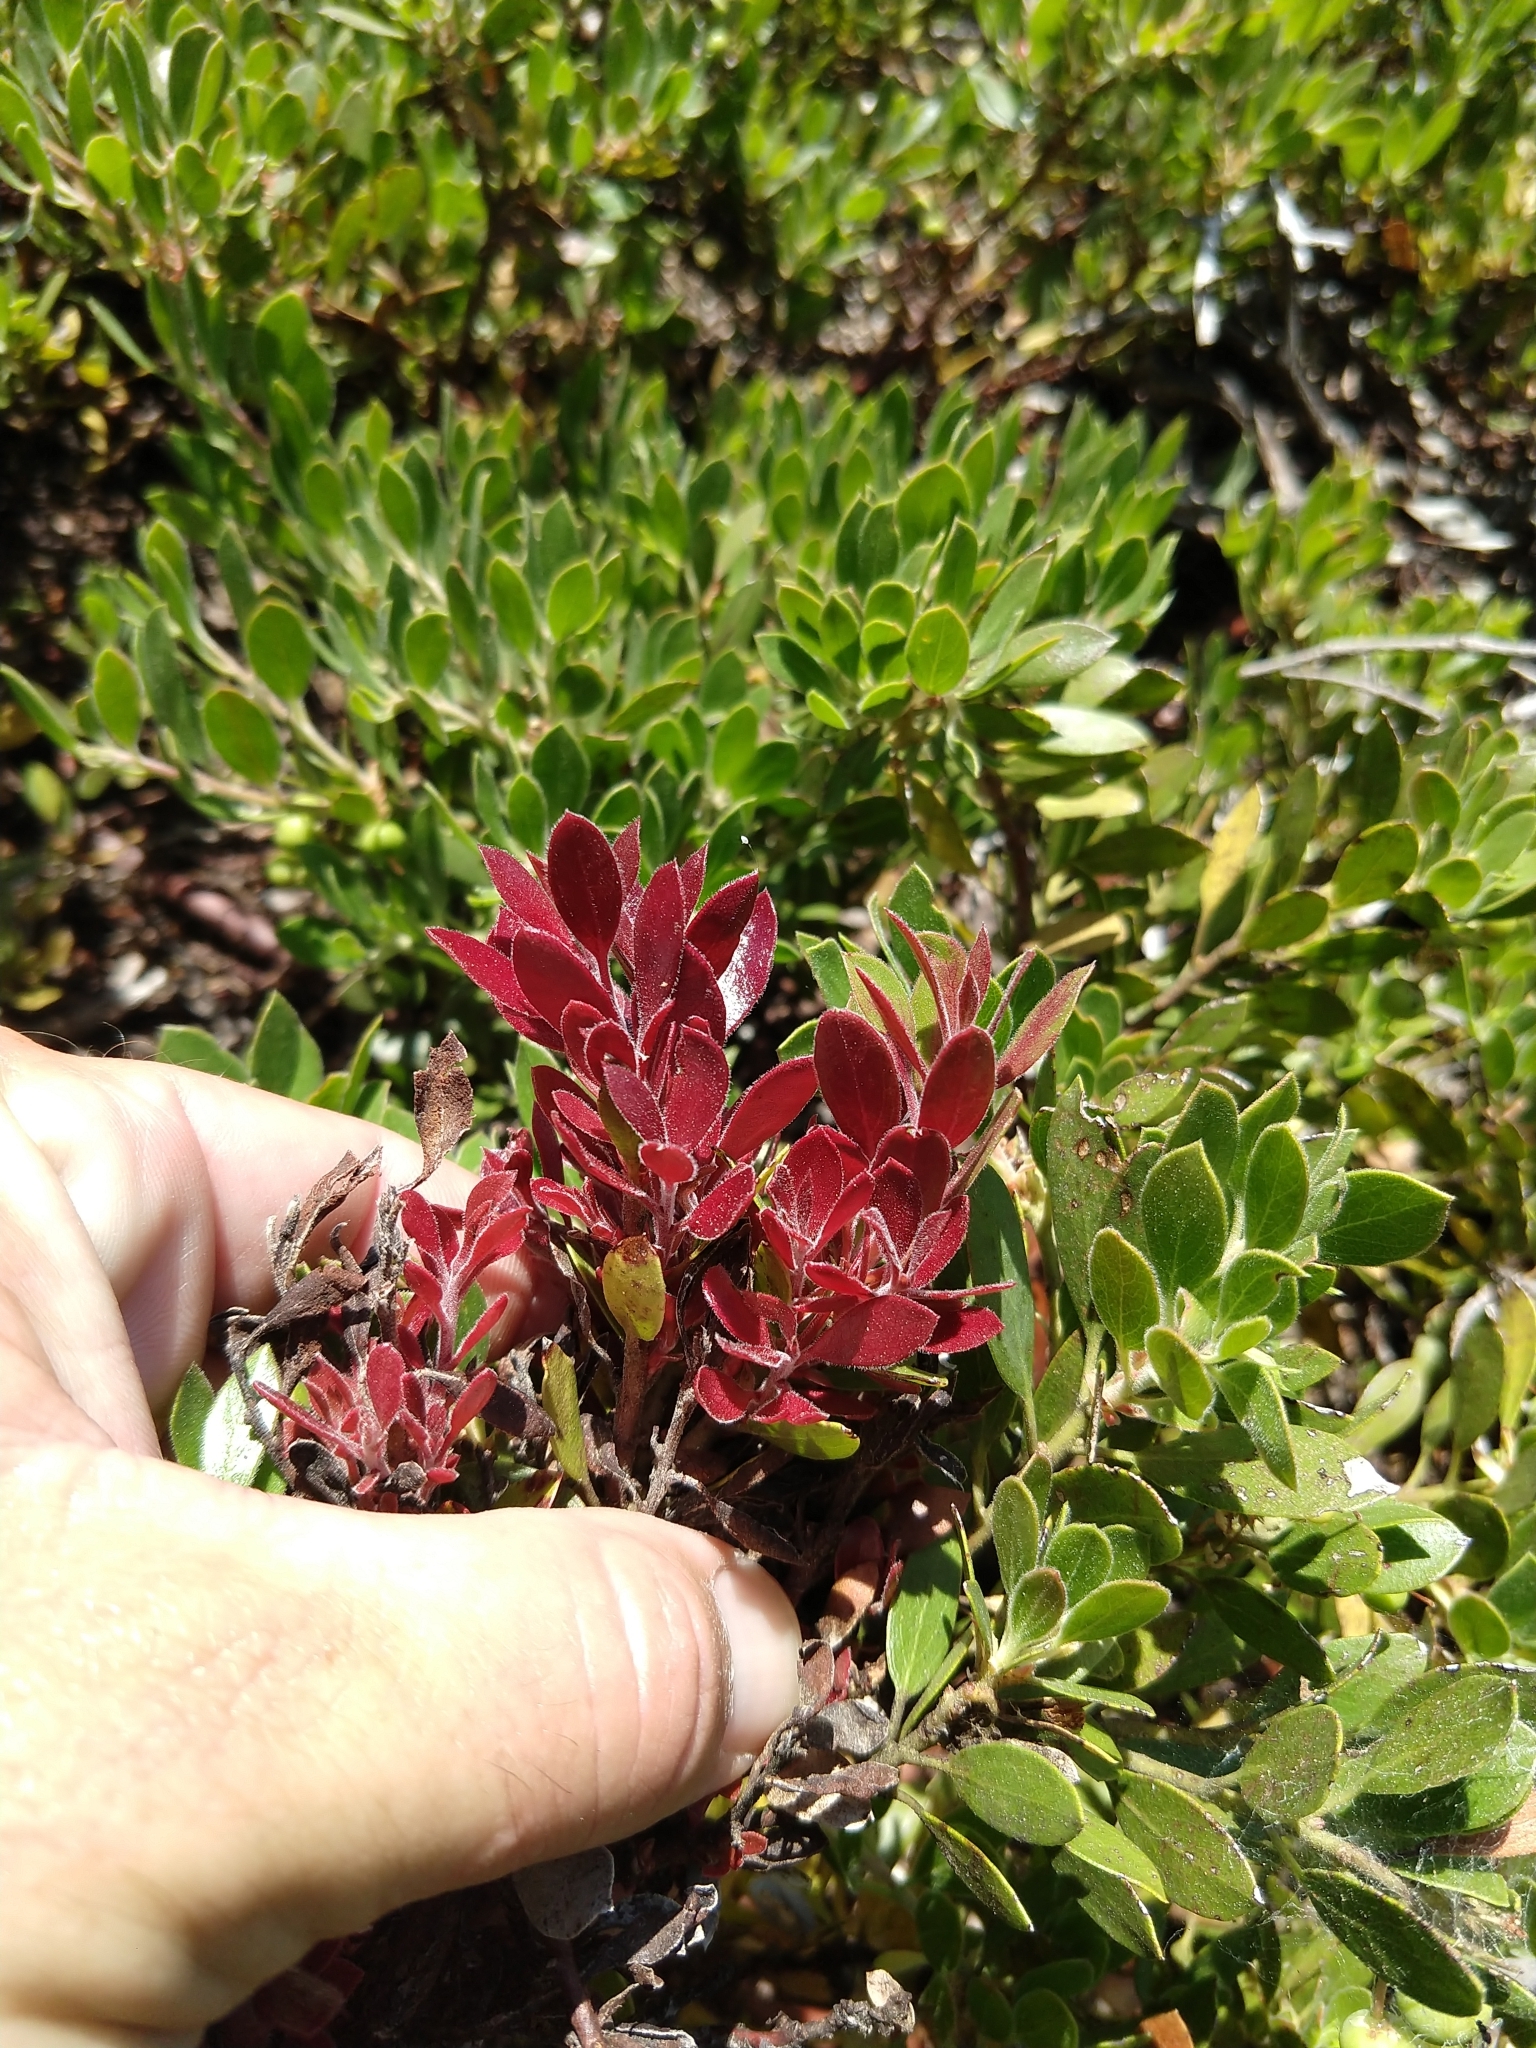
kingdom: Fungi
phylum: Basidiomycota
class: Exobasidiomycetes
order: Exobasidiales
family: Exobasidiaceae
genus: Exobasidium
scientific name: Exobasidium
